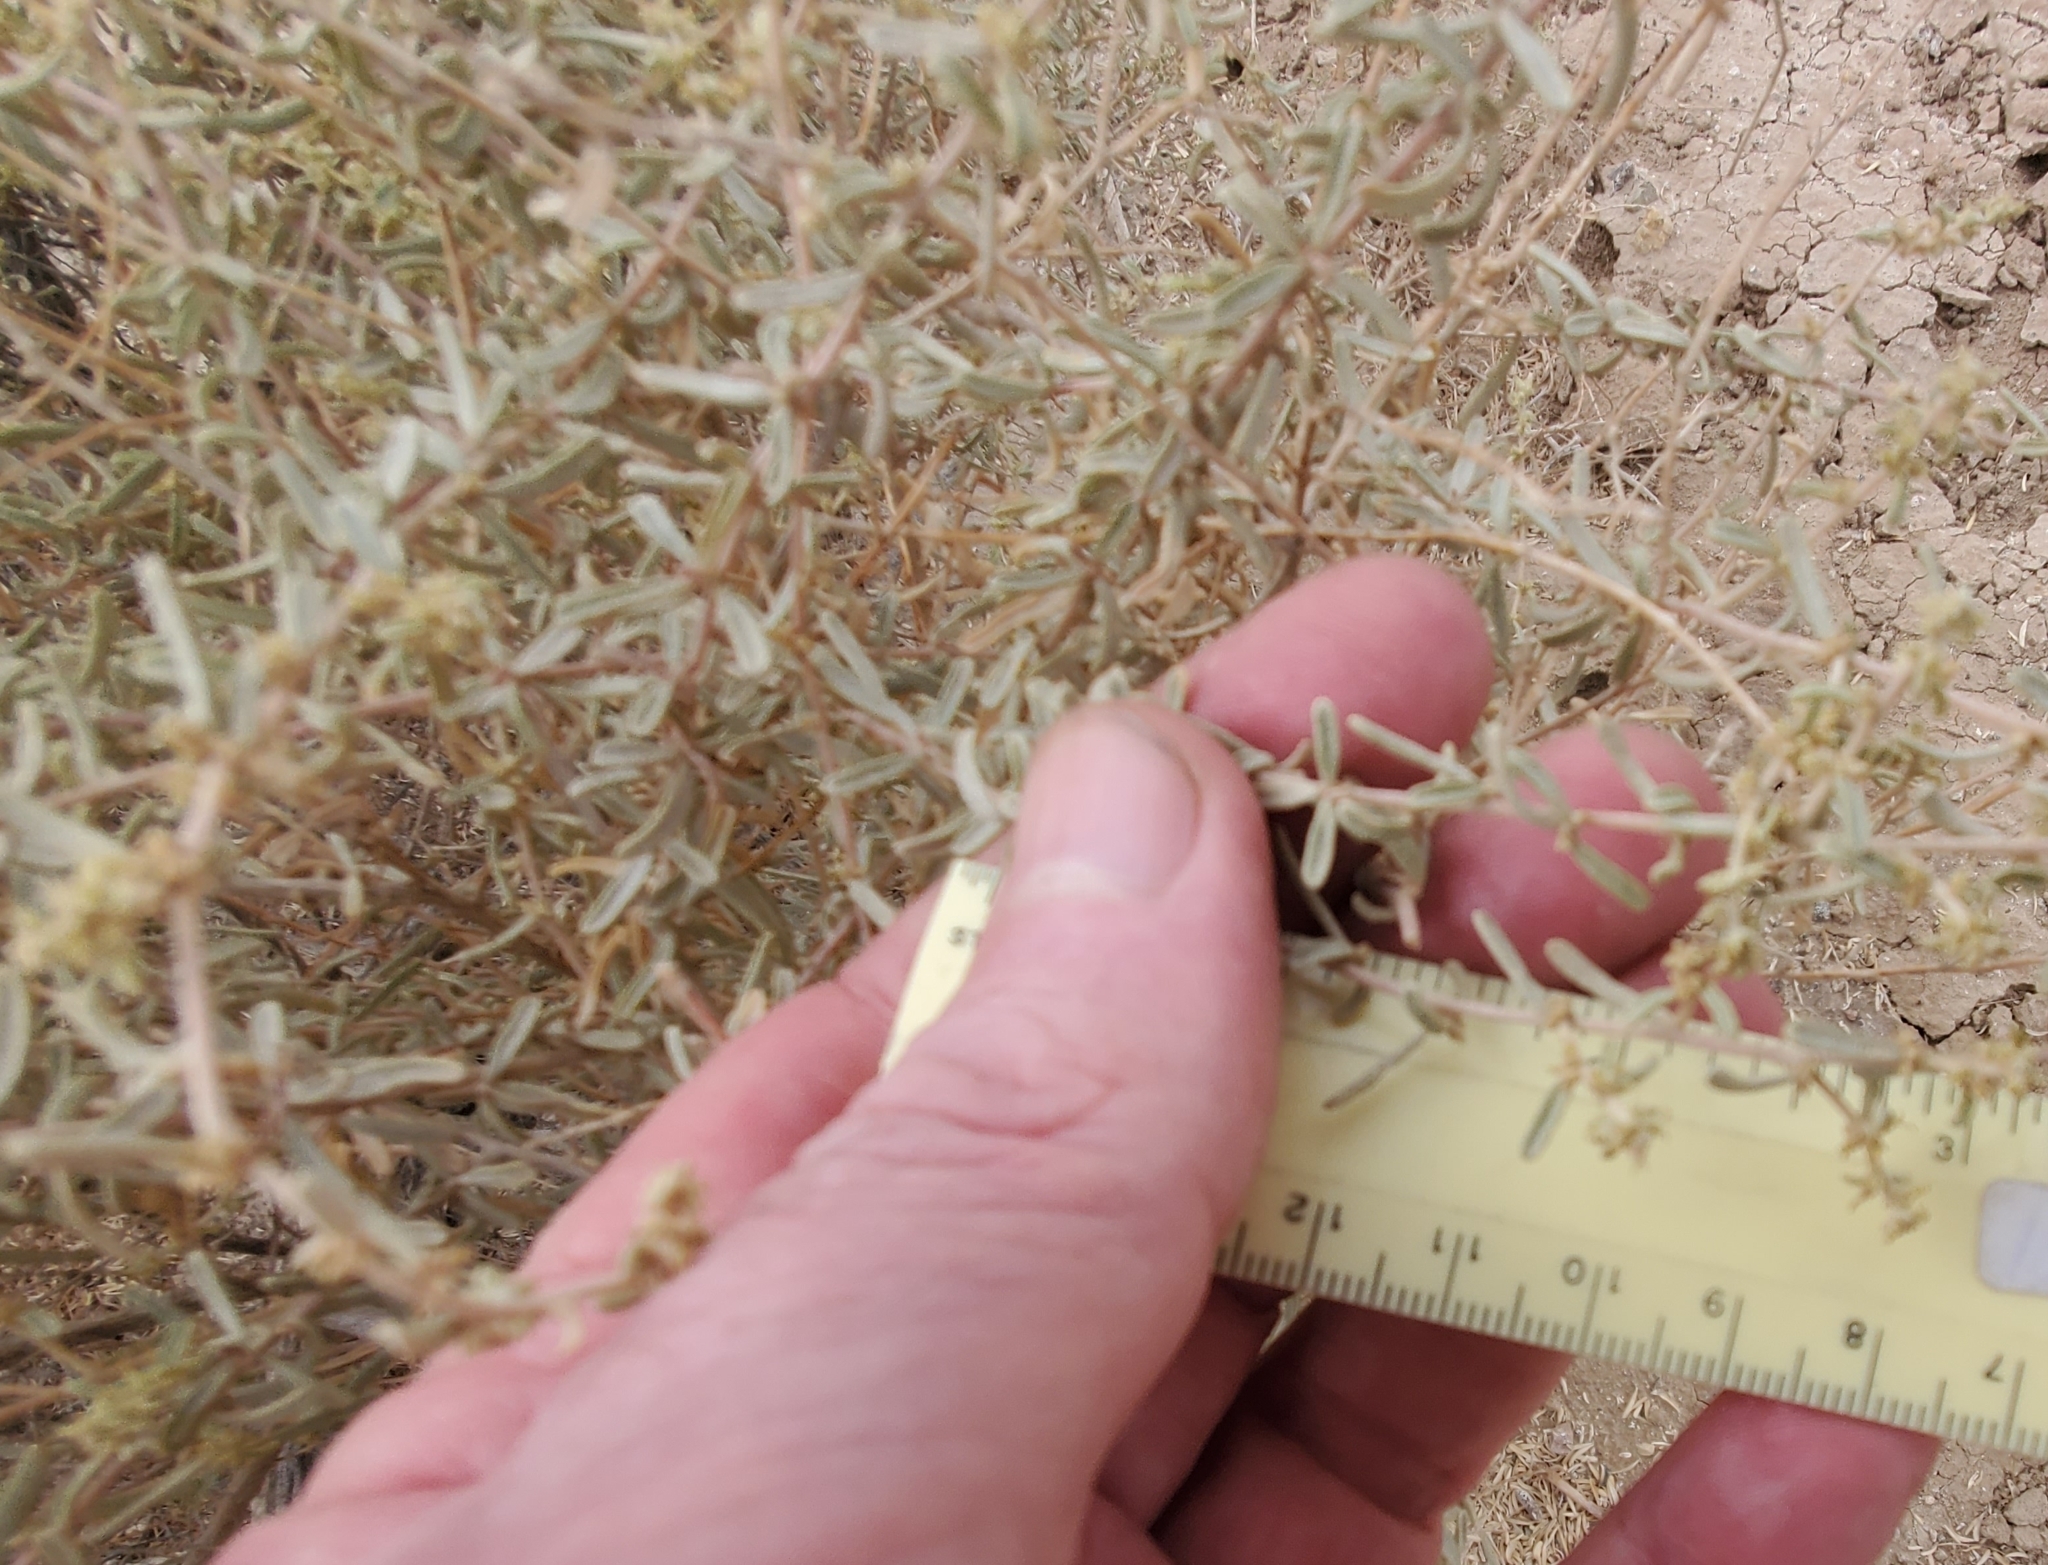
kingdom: Plantae
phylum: Tracheophyta
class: Magnoliopsida
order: Caryophyllales
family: Amaranthaceae
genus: Atriplex
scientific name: Atriplex canescens
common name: Four-wing saltbush
